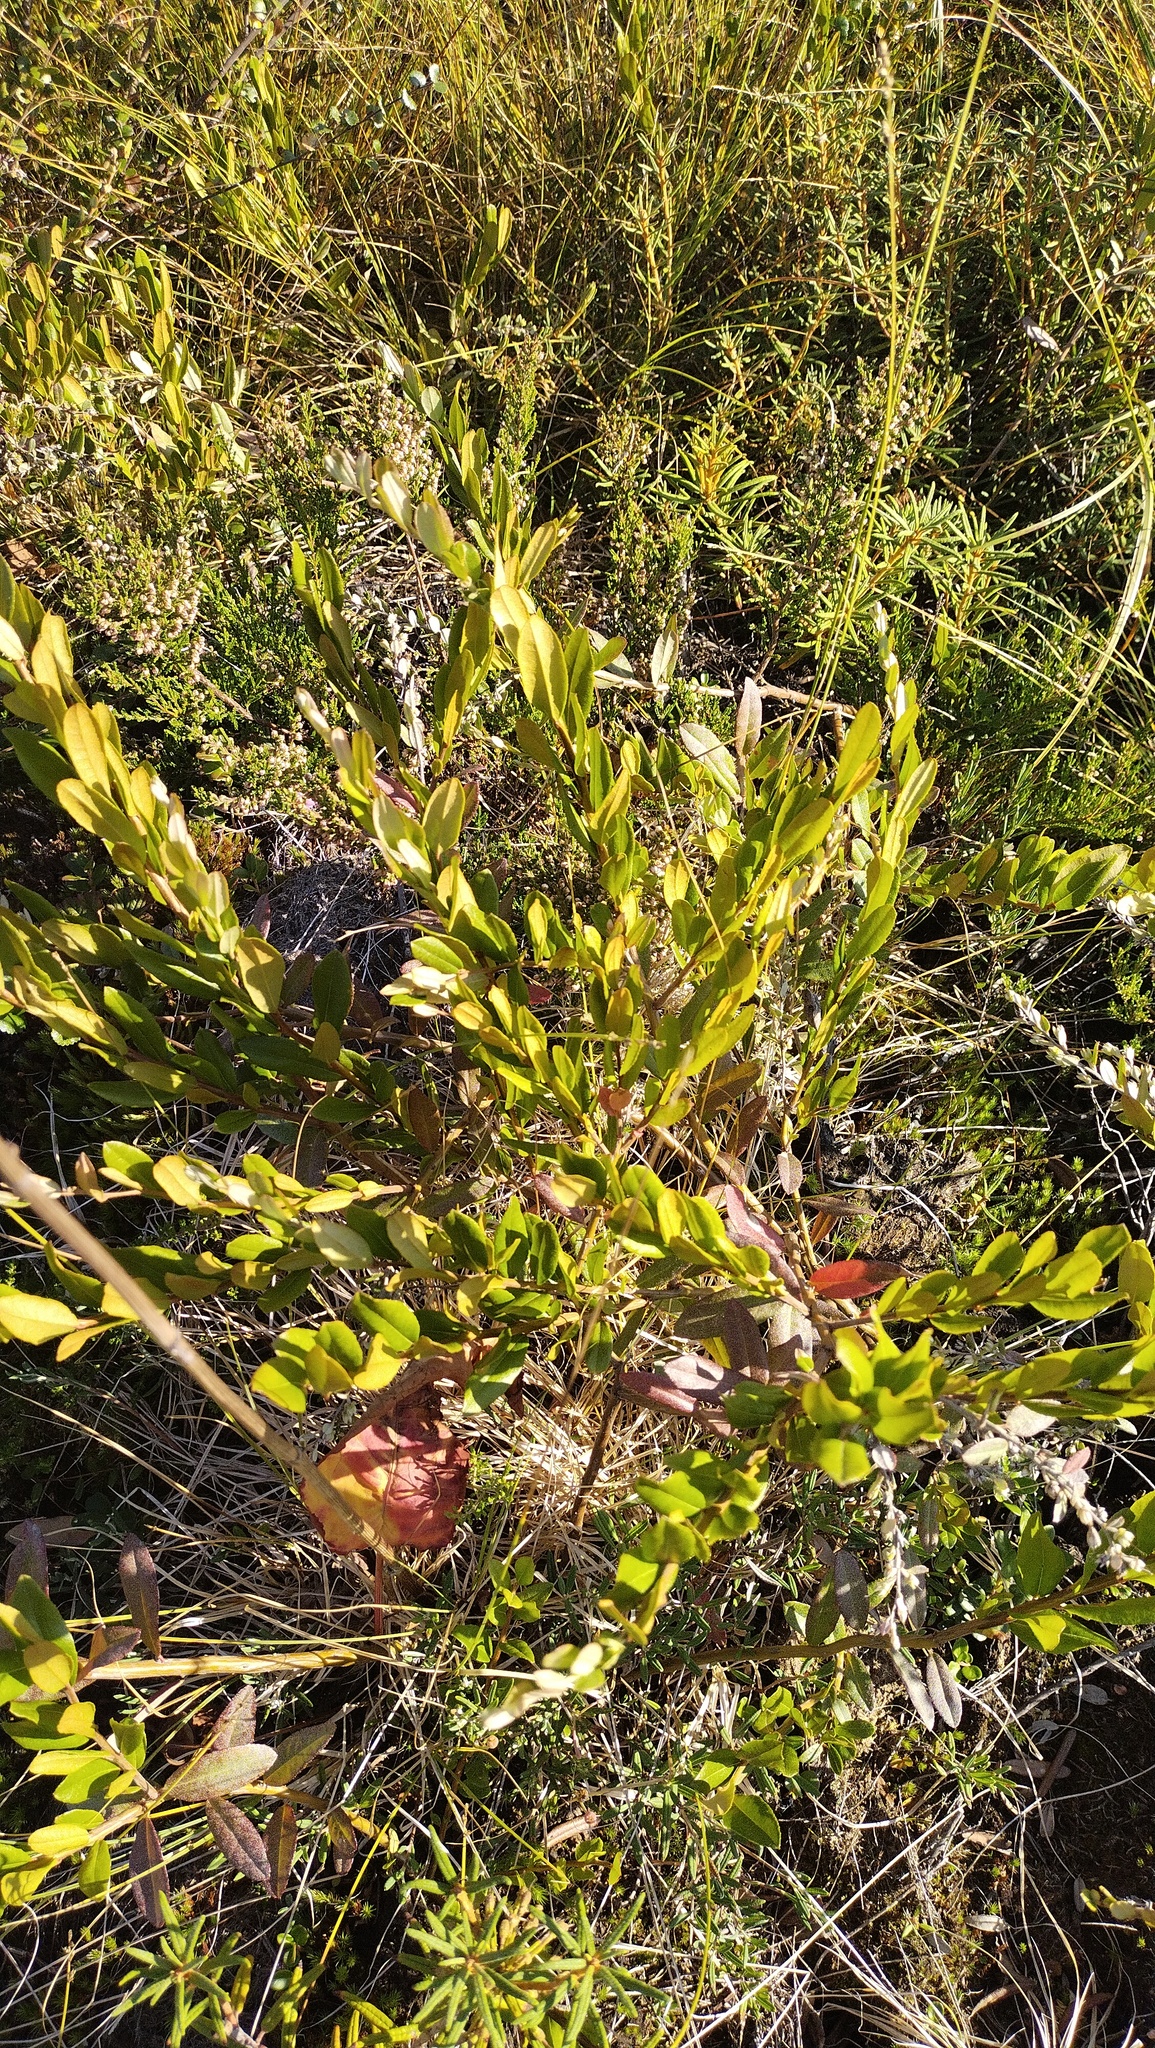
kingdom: Plantae
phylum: Tracheophyta
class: Magnoliopsida
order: Ericales
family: Ericaceae
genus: Chamaedaphne
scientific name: Chamaedaphne calyculata
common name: Leatherleaf
